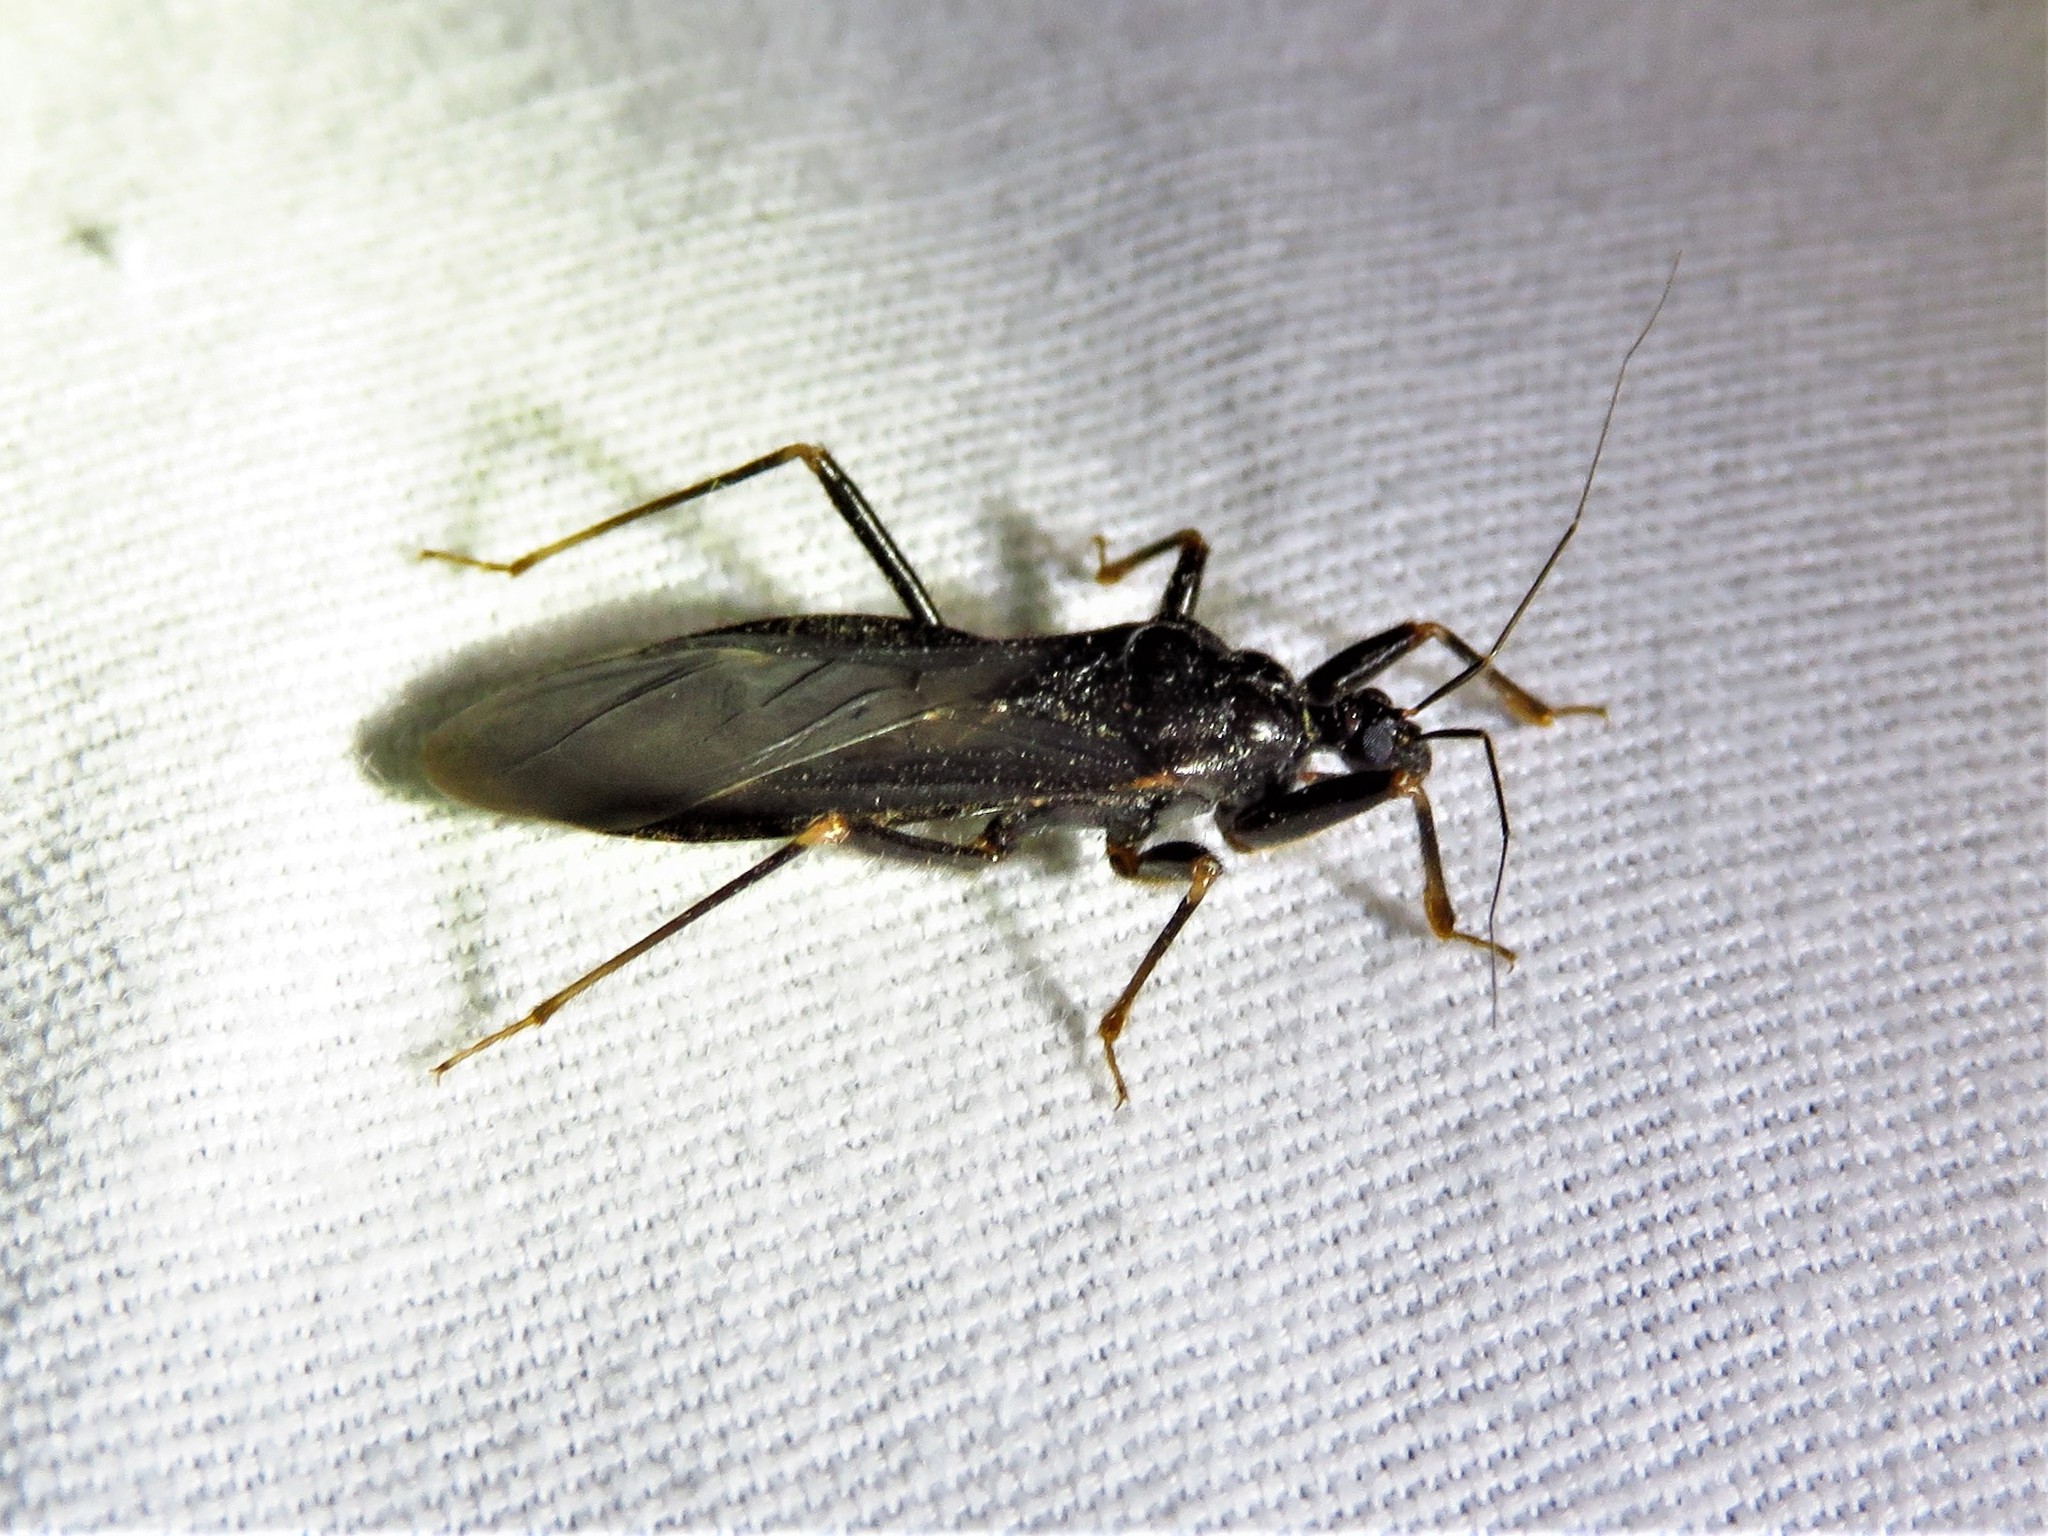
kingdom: Animalia
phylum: Arthropoda
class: Insecta
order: Hemiptera
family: Reduviidae
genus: Reduvius
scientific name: Reduvius personatus
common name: Masked hunter
